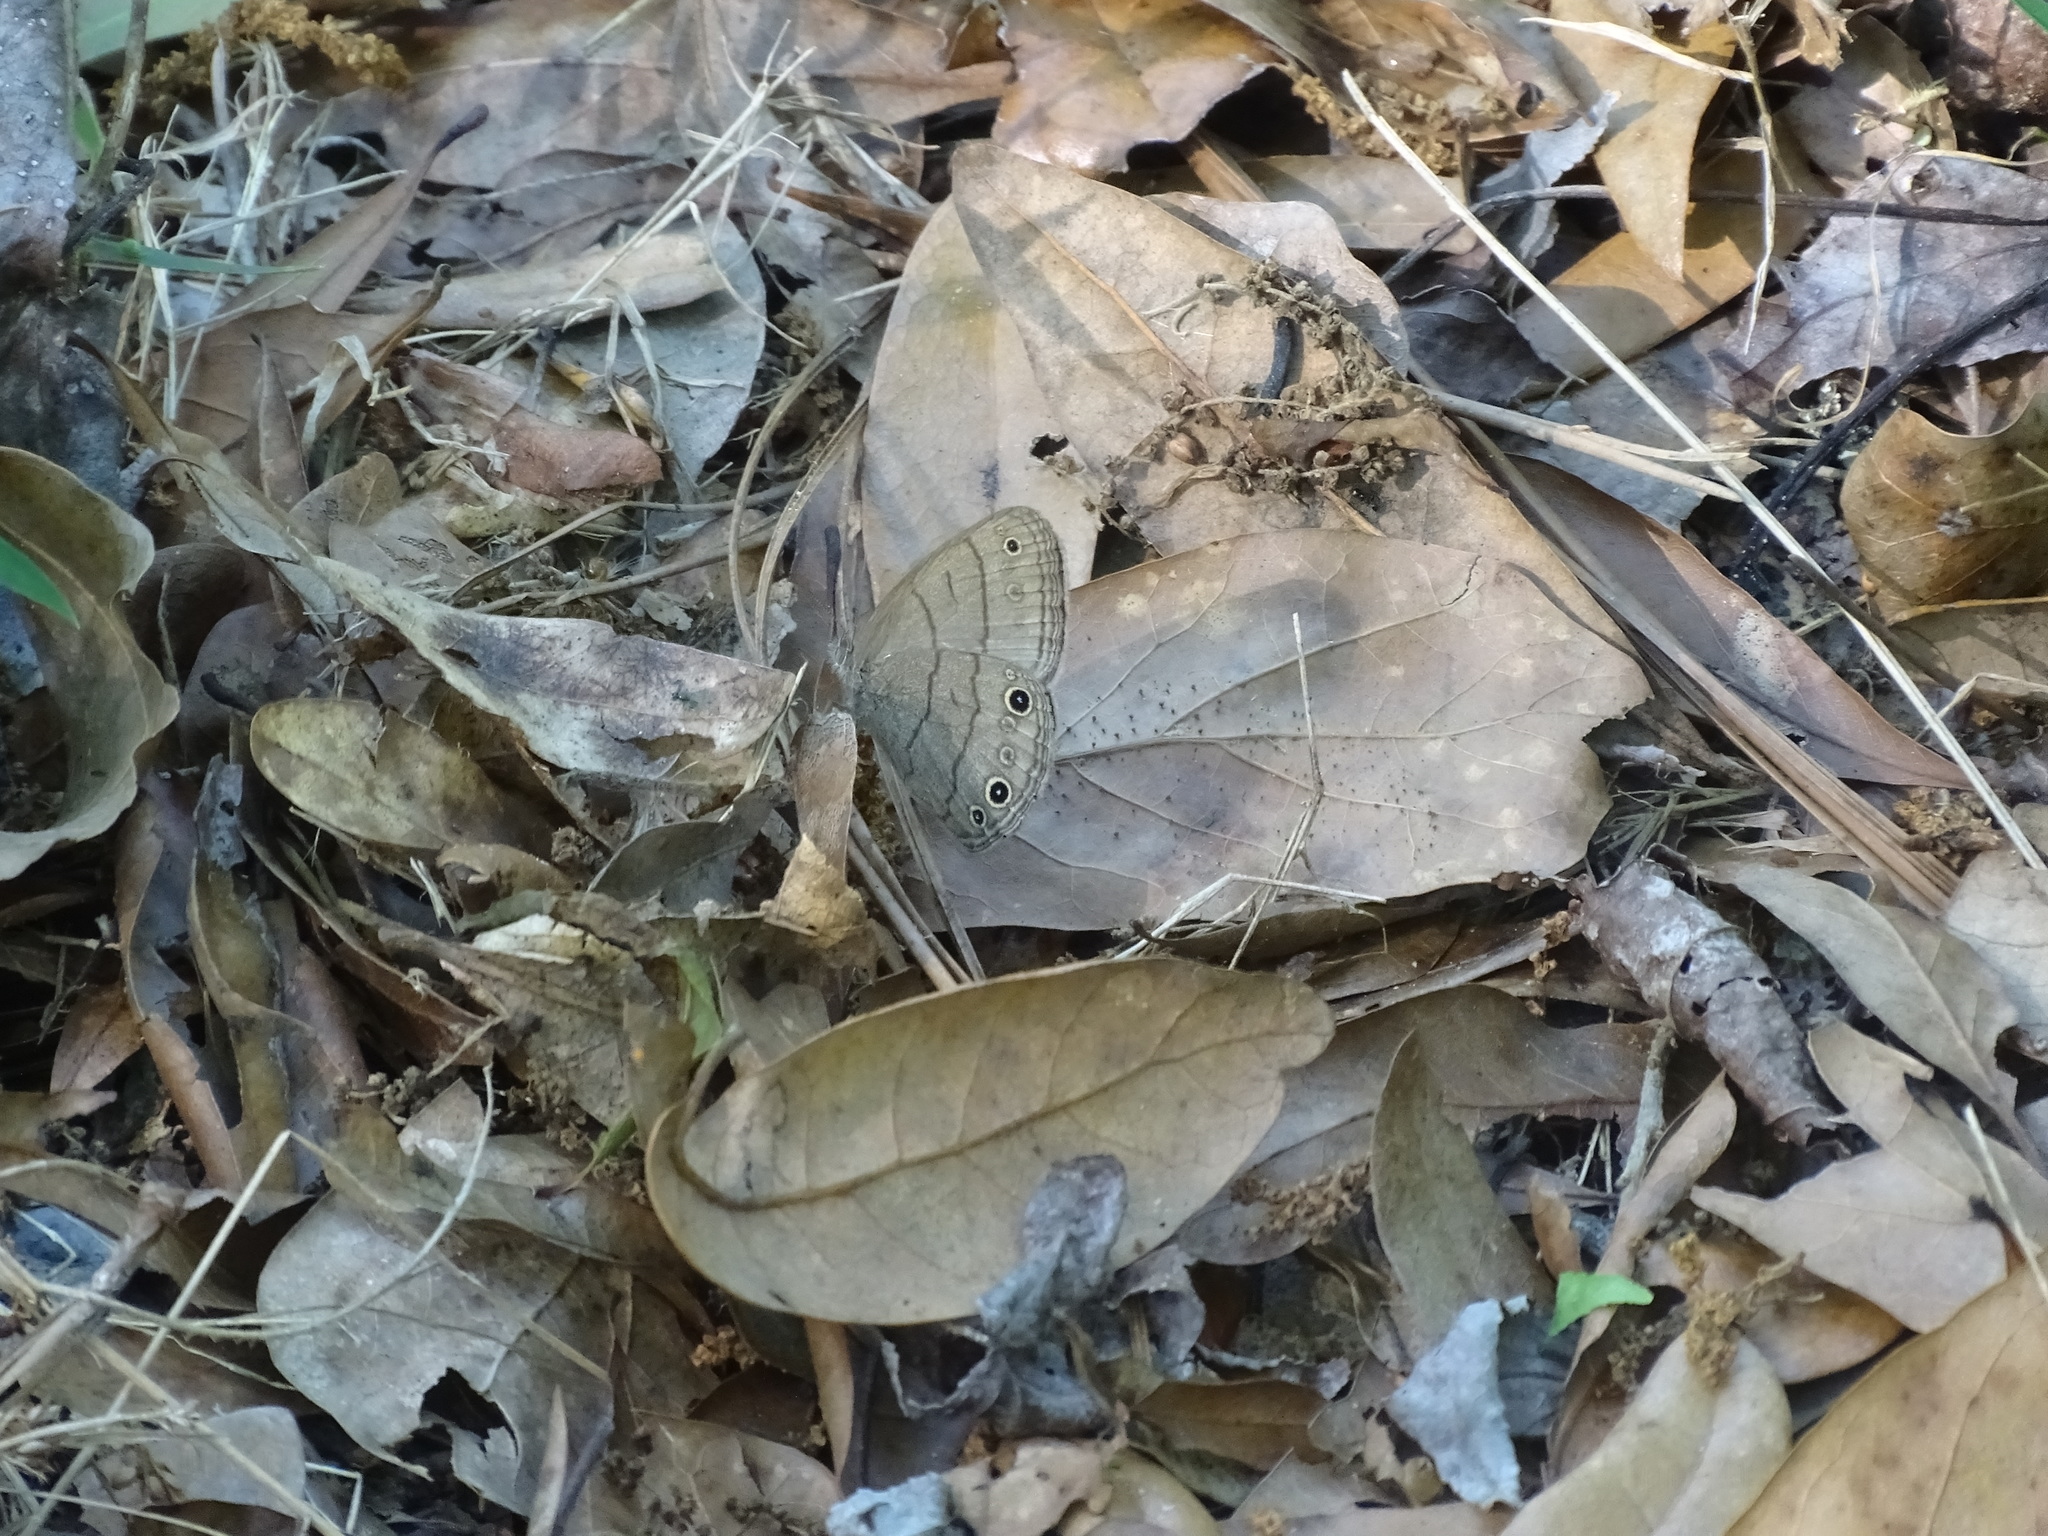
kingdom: Animalia
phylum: Arthropoda
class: Insecta
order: Lepidoptera
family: Nymphalidae
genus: Hermeuptychia
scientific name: Hermeuptychia hermes
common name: Hermes satyr
